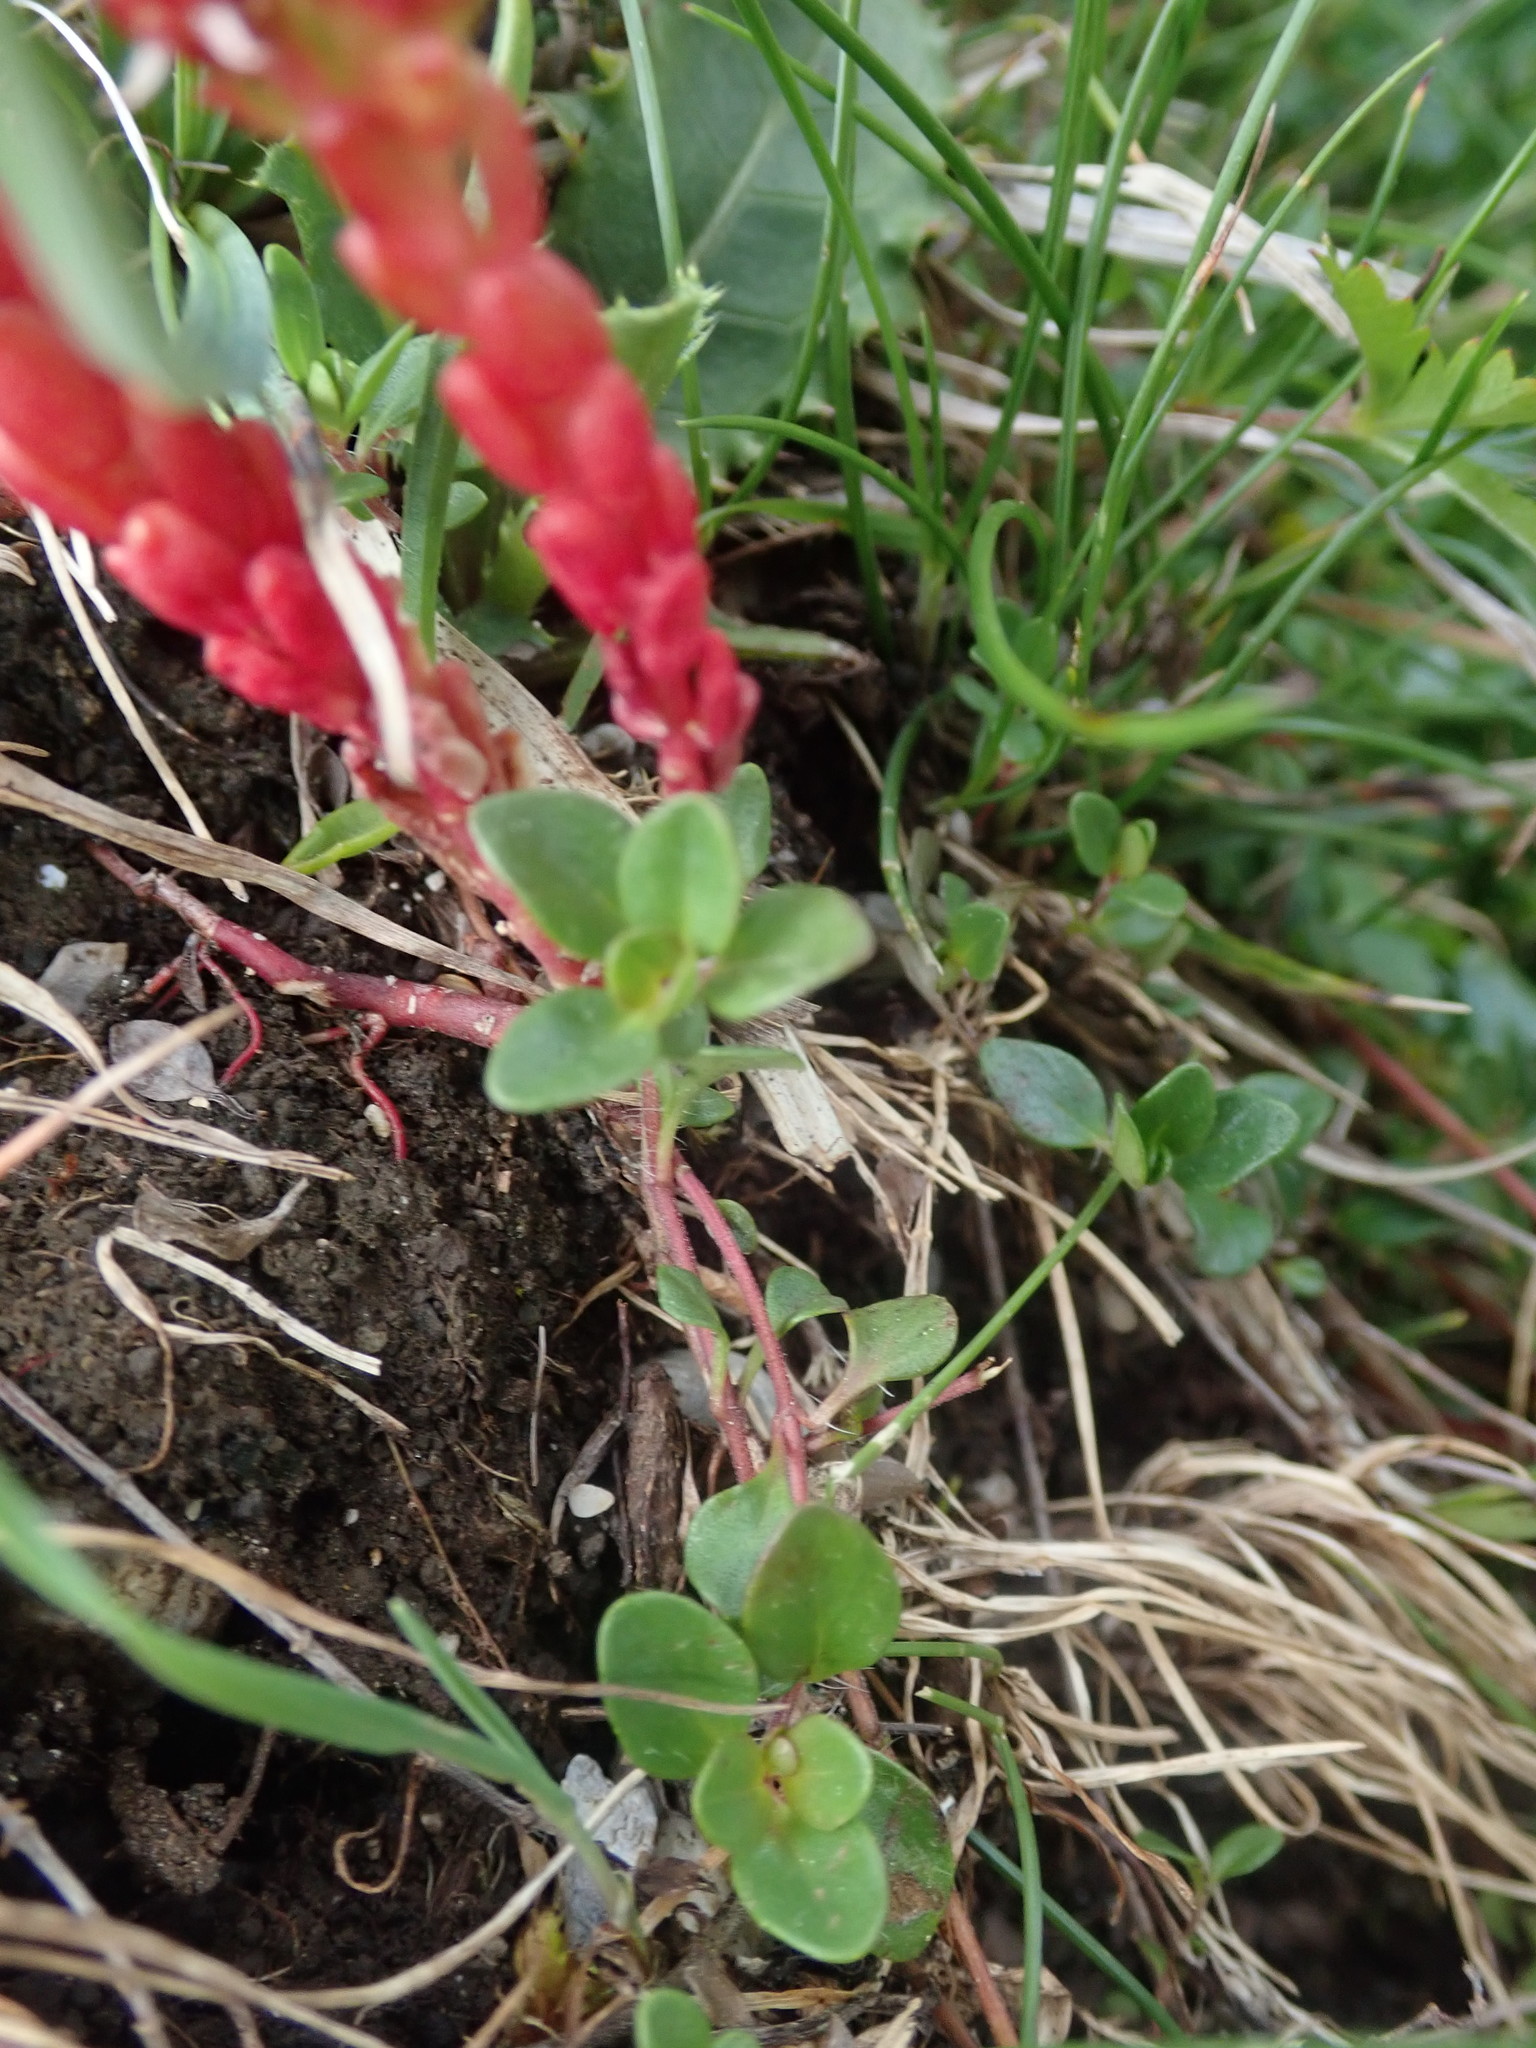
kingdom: Plantae
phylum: Tracheophyta
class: Magnoliopsida
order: Saxifragales
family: Crassulaceae
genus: Sedum
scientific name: Sedum atratum
